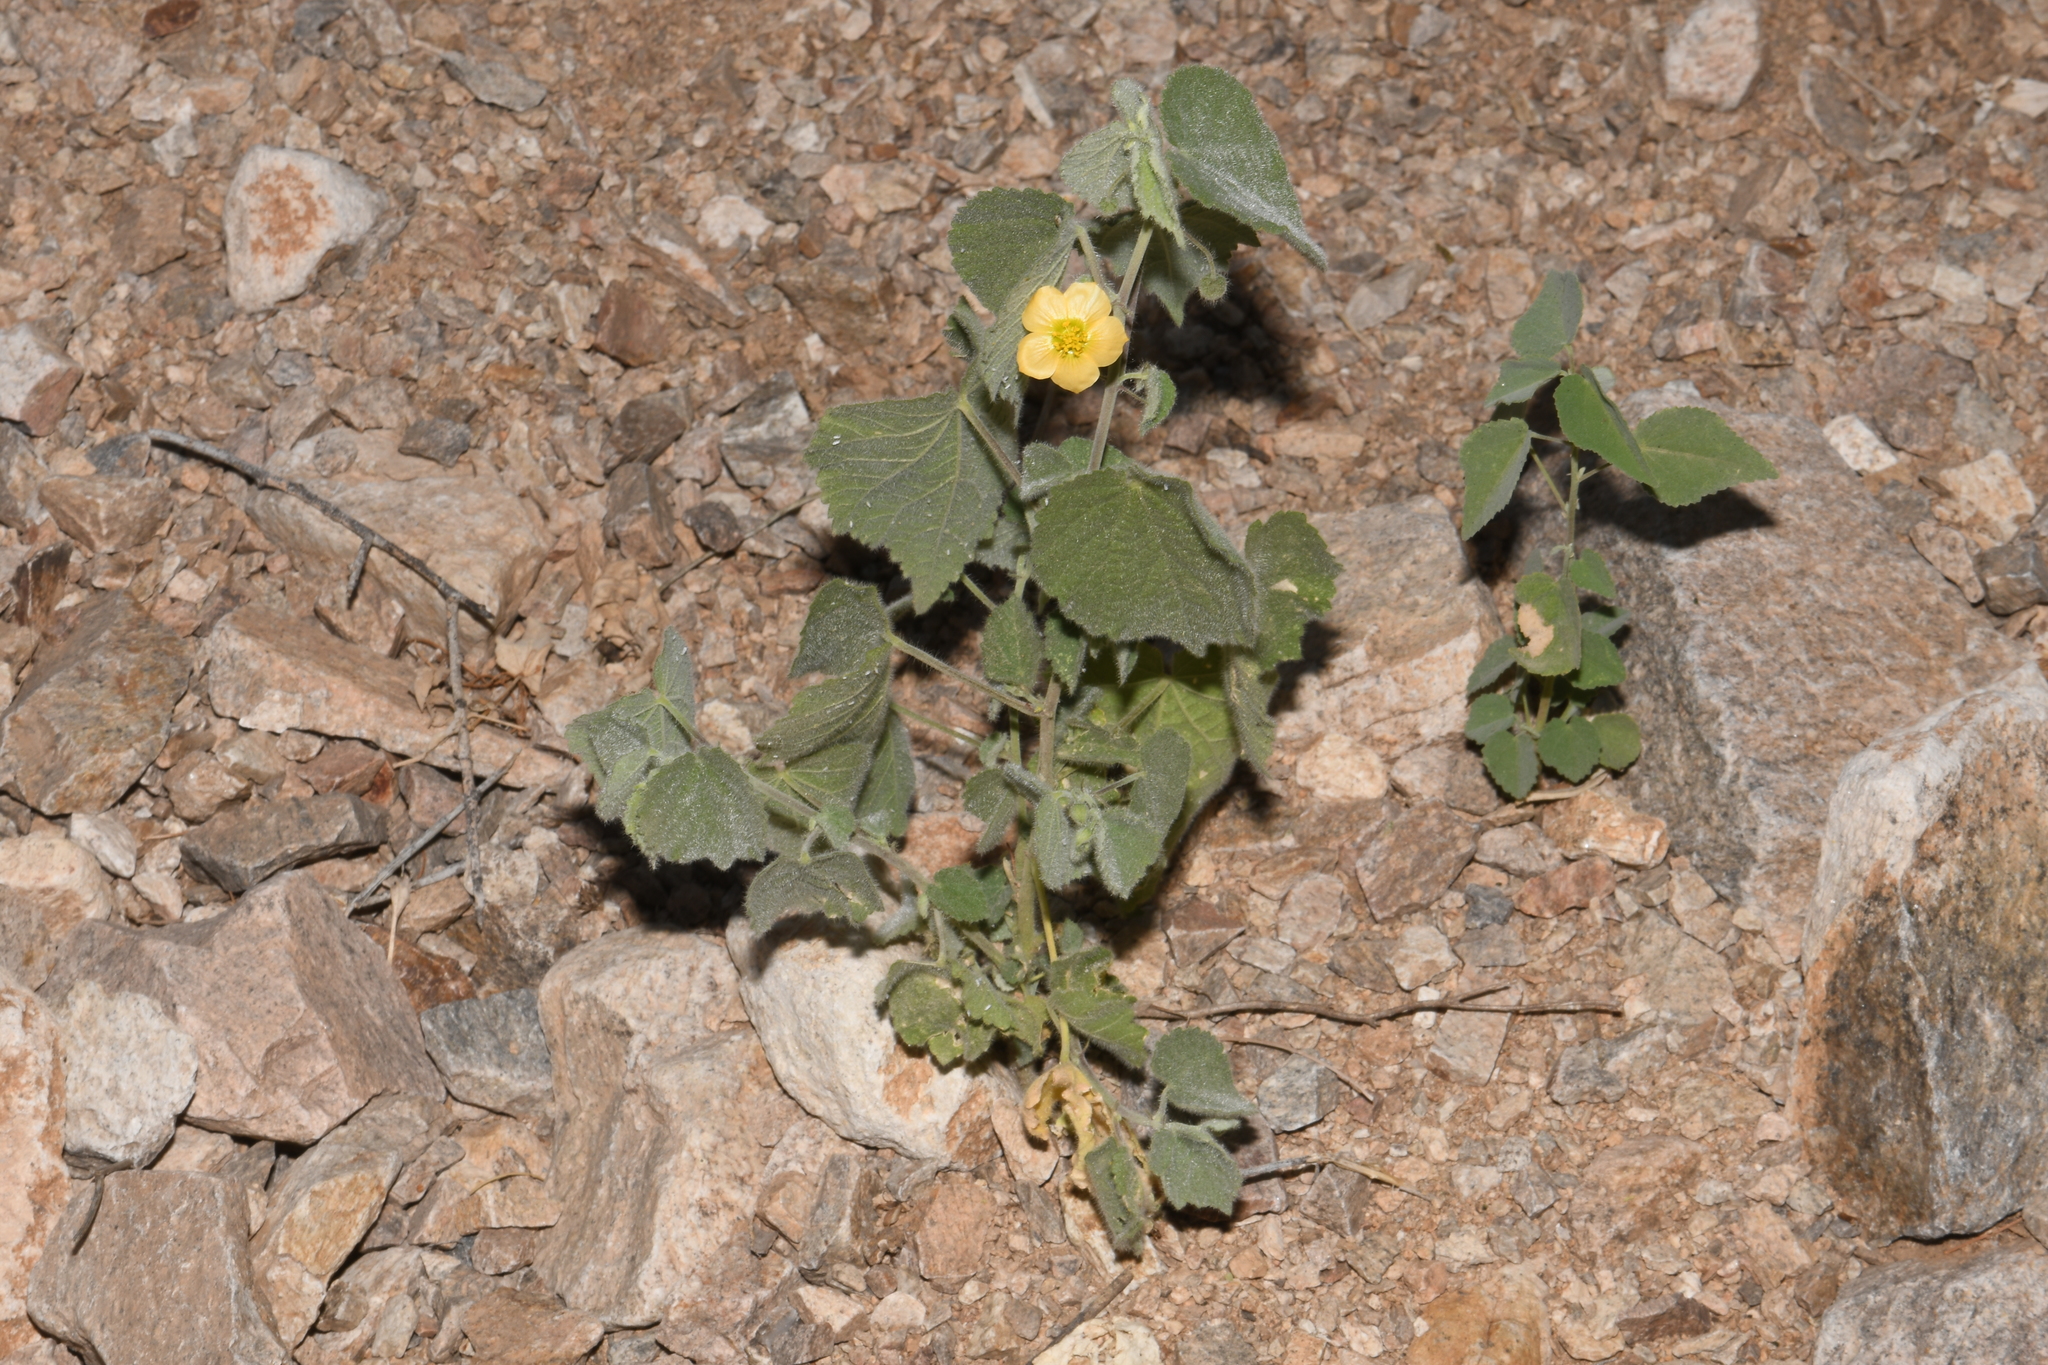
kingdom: Plantae
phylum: Tracheophyta
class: Magnoliopsida
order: Malvales
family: Malvaceae
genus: Herissantia
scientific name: Herissantia crispa
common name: Bladdermallow
